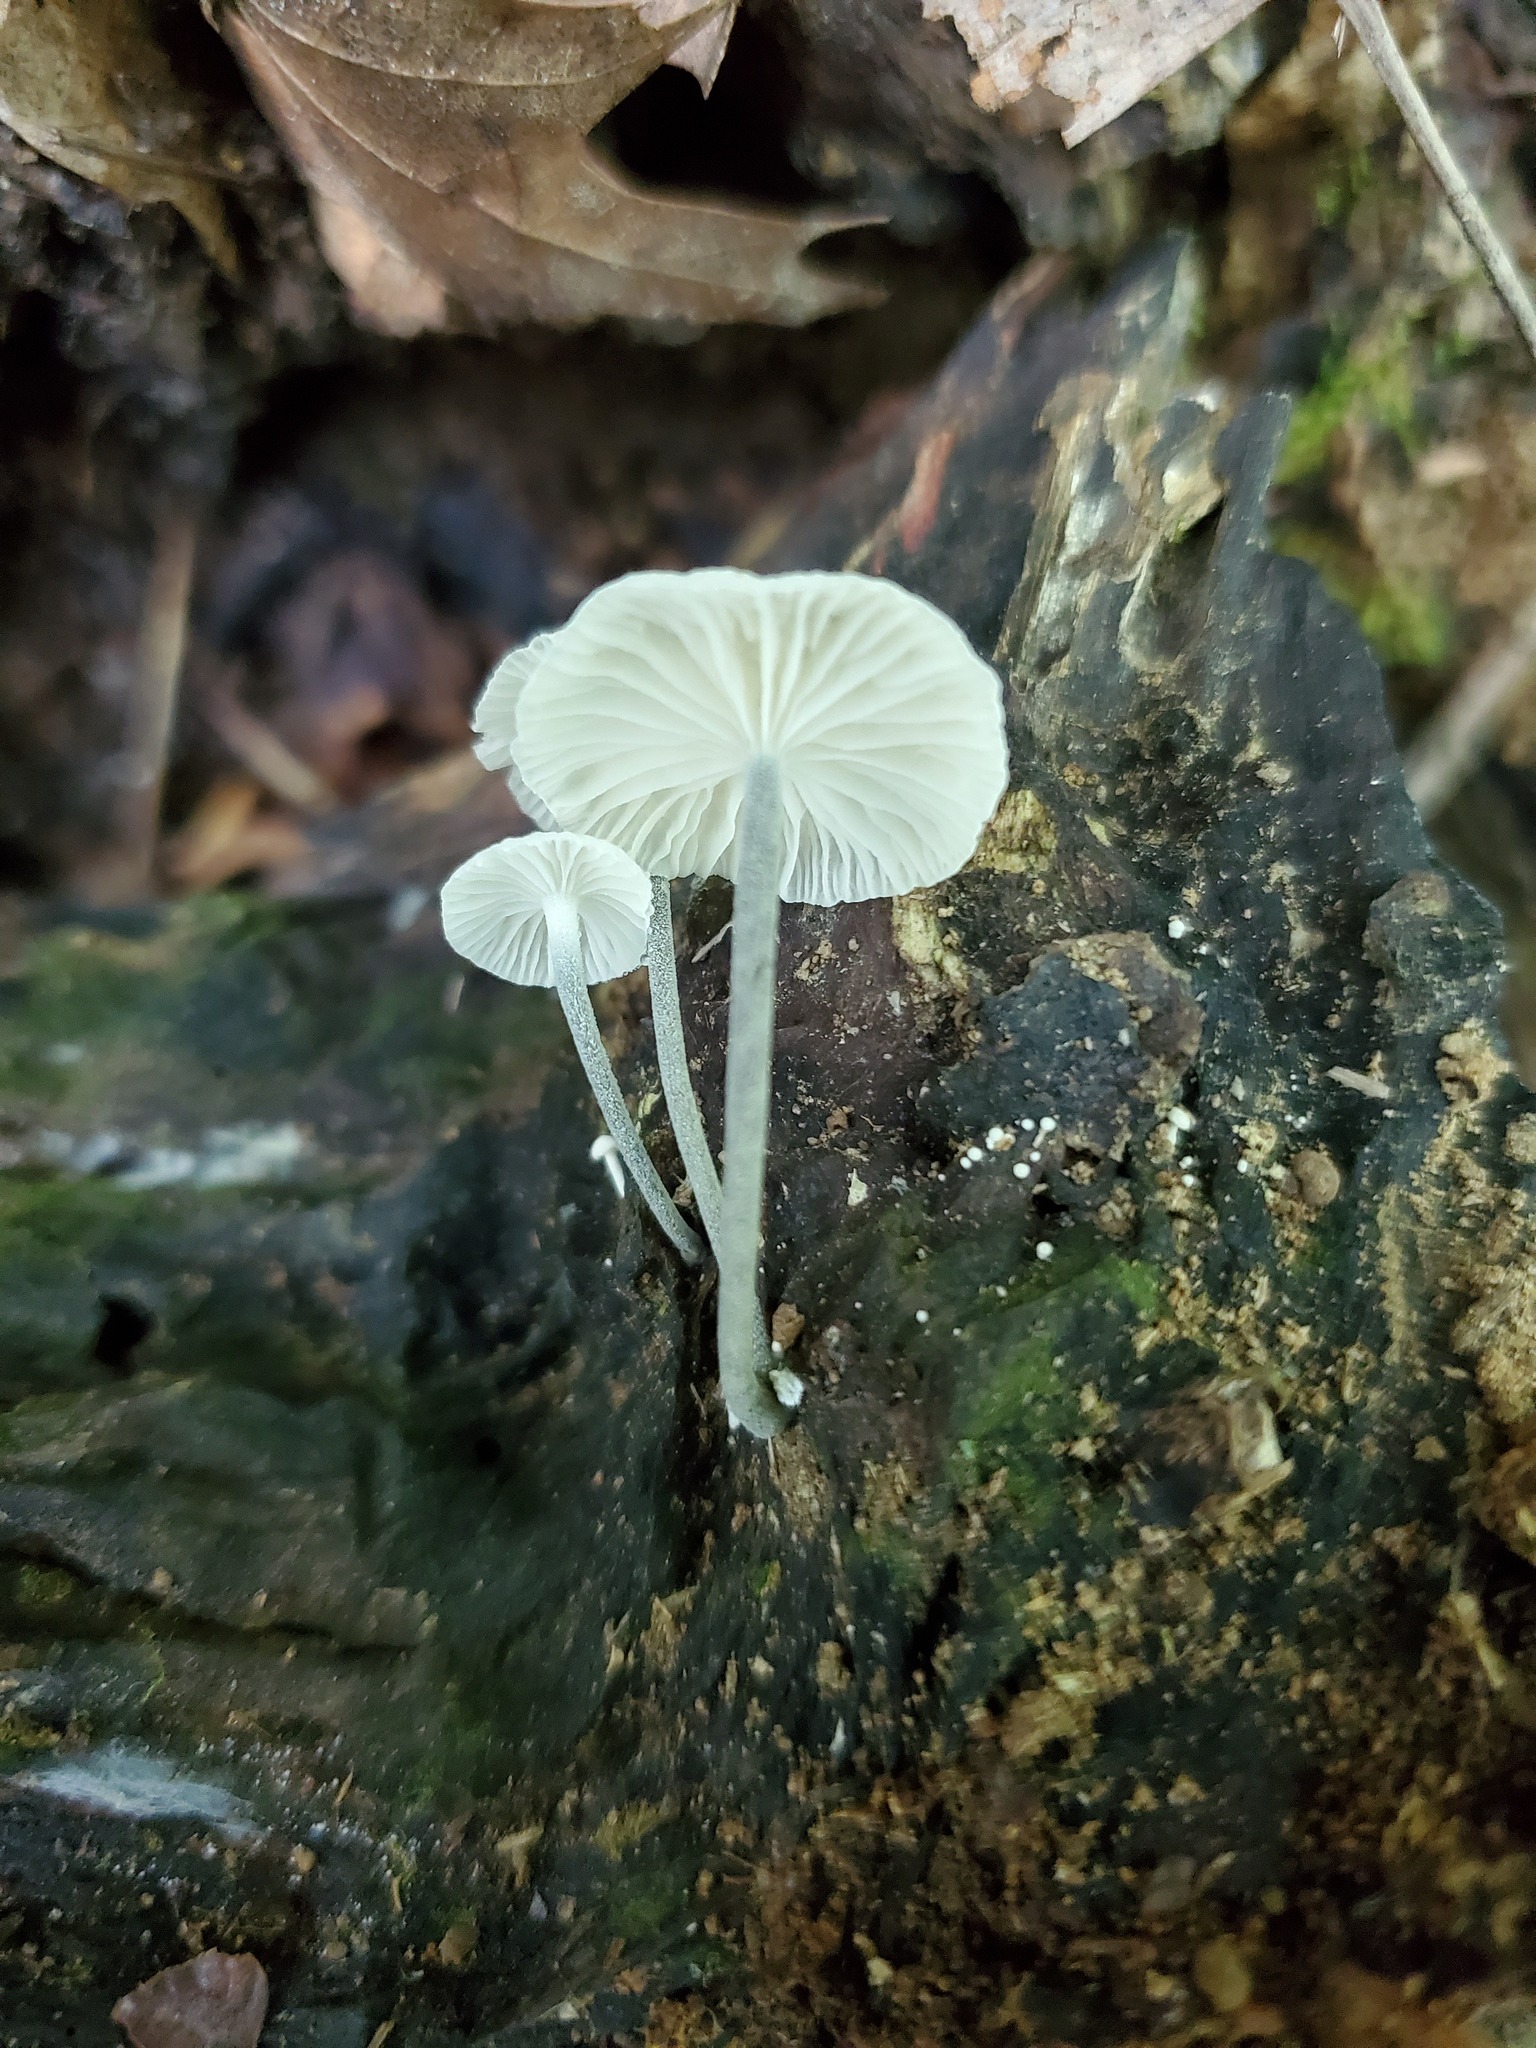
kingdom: Fungi
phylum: Basidiomycota
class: Agaricomycetes
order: Agaricales
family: Marasmiaceae
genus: Tetrapyrgos
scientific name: Tetrapyrgos nigripes
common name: Black-stalked marasmius
